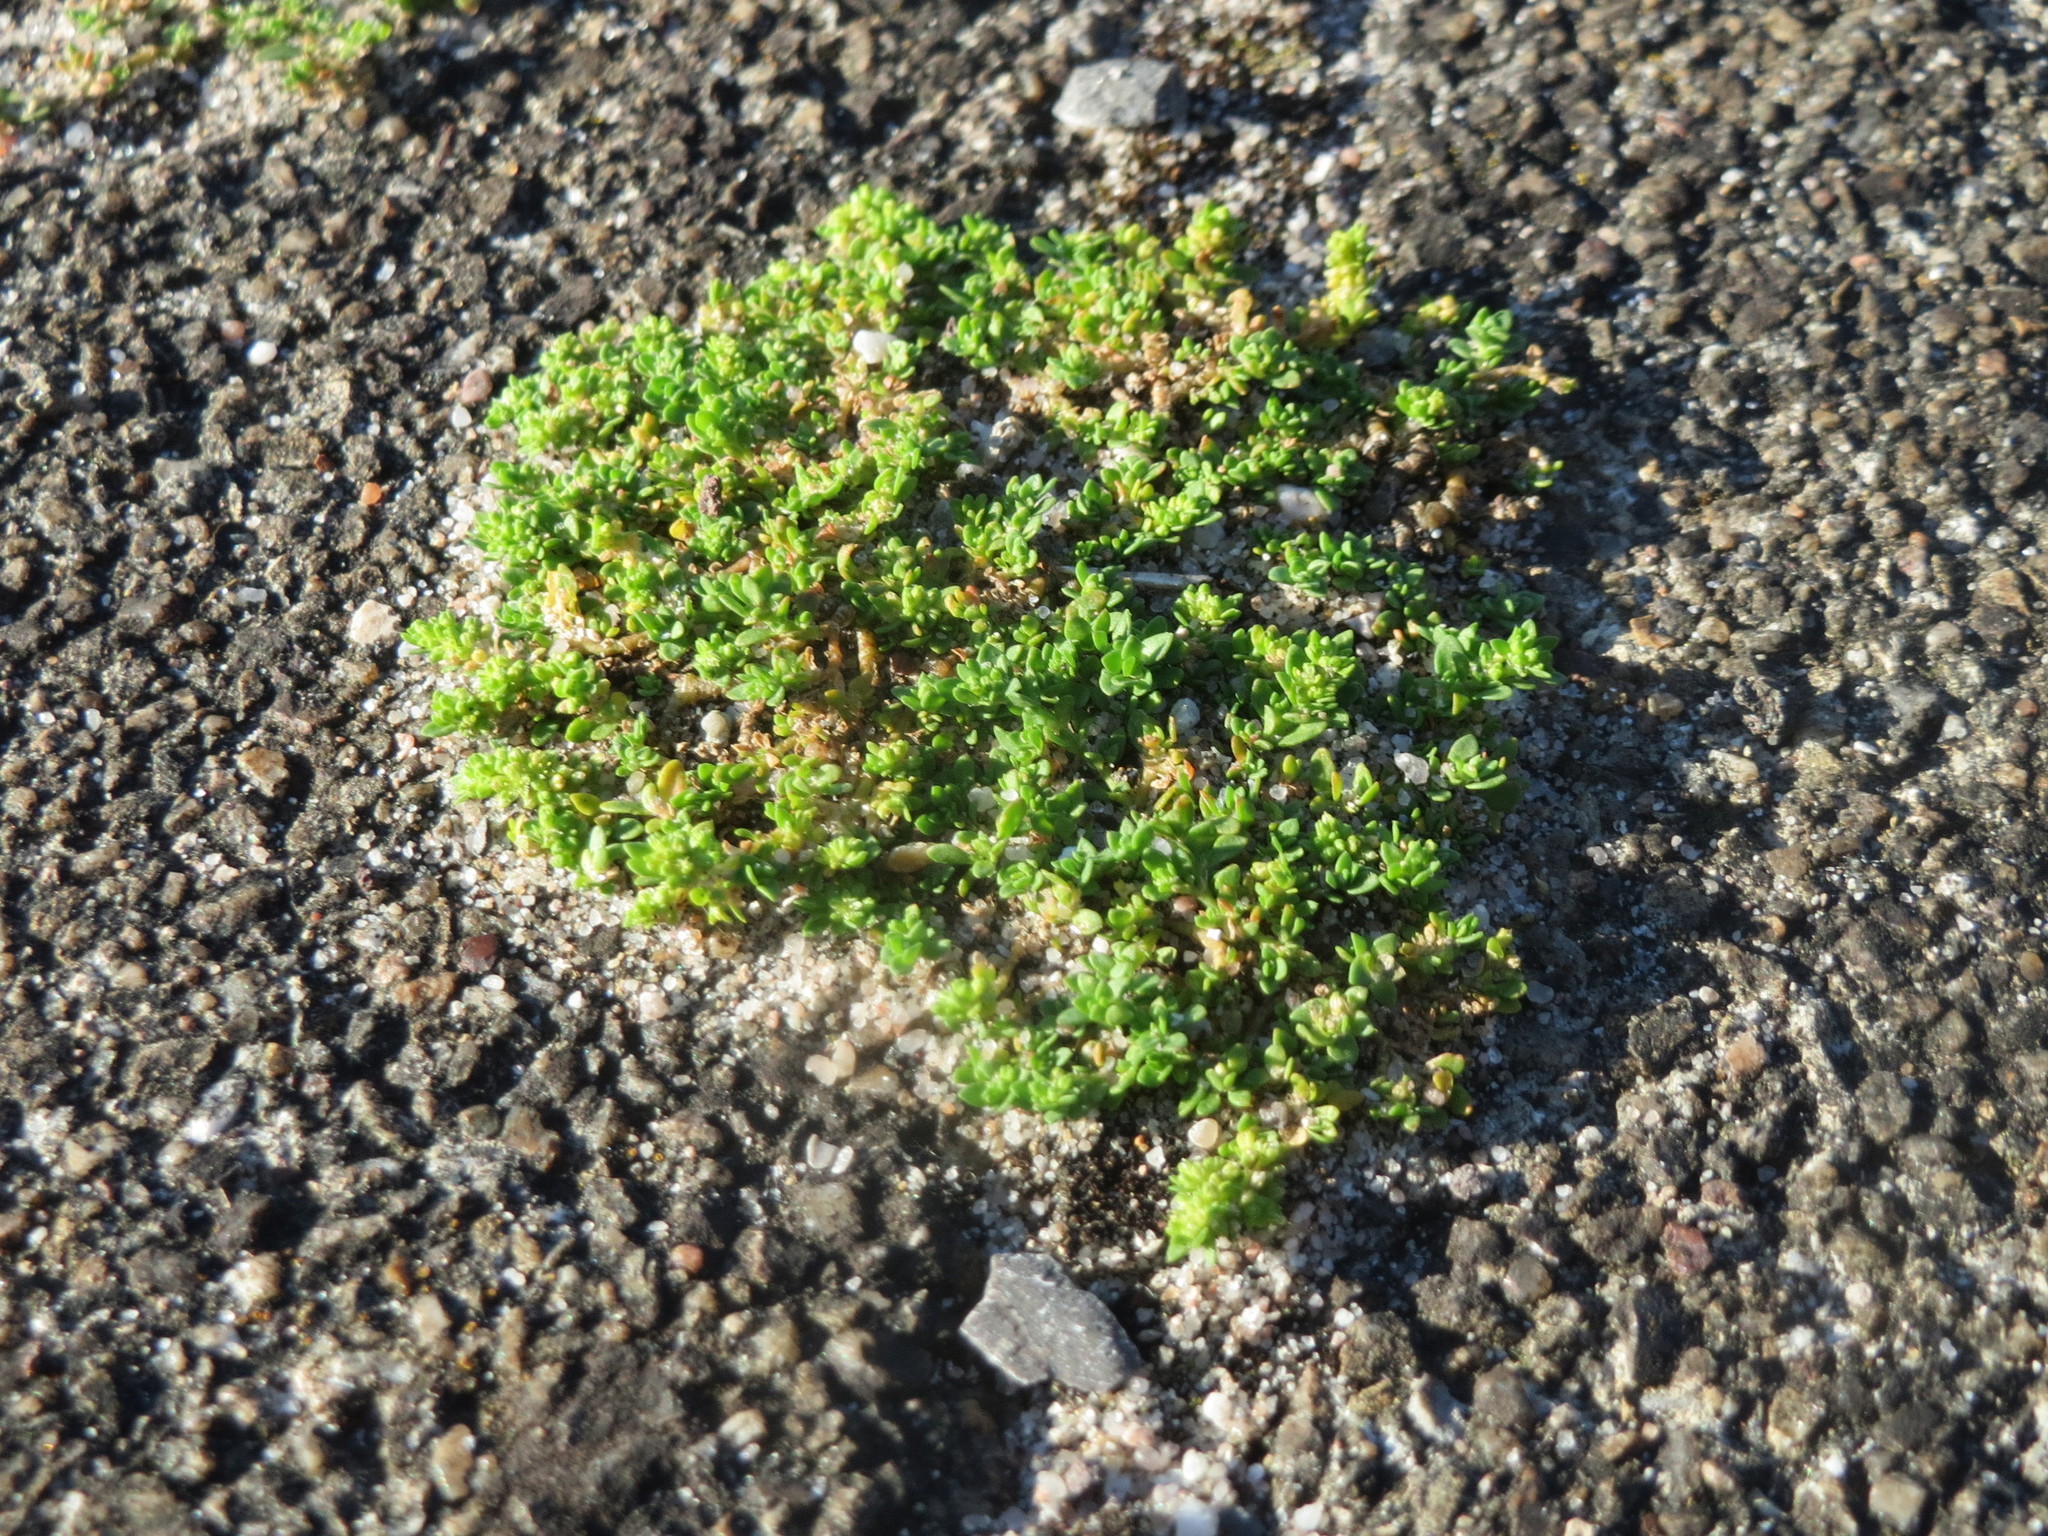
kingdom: Plantae
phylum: Tracheophyta
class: Magnoliopsida
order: Caryophyllales
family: Caryophyllaceae
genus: Herniaria
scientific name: Herniaria glabra
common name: Smooth rupturewort
